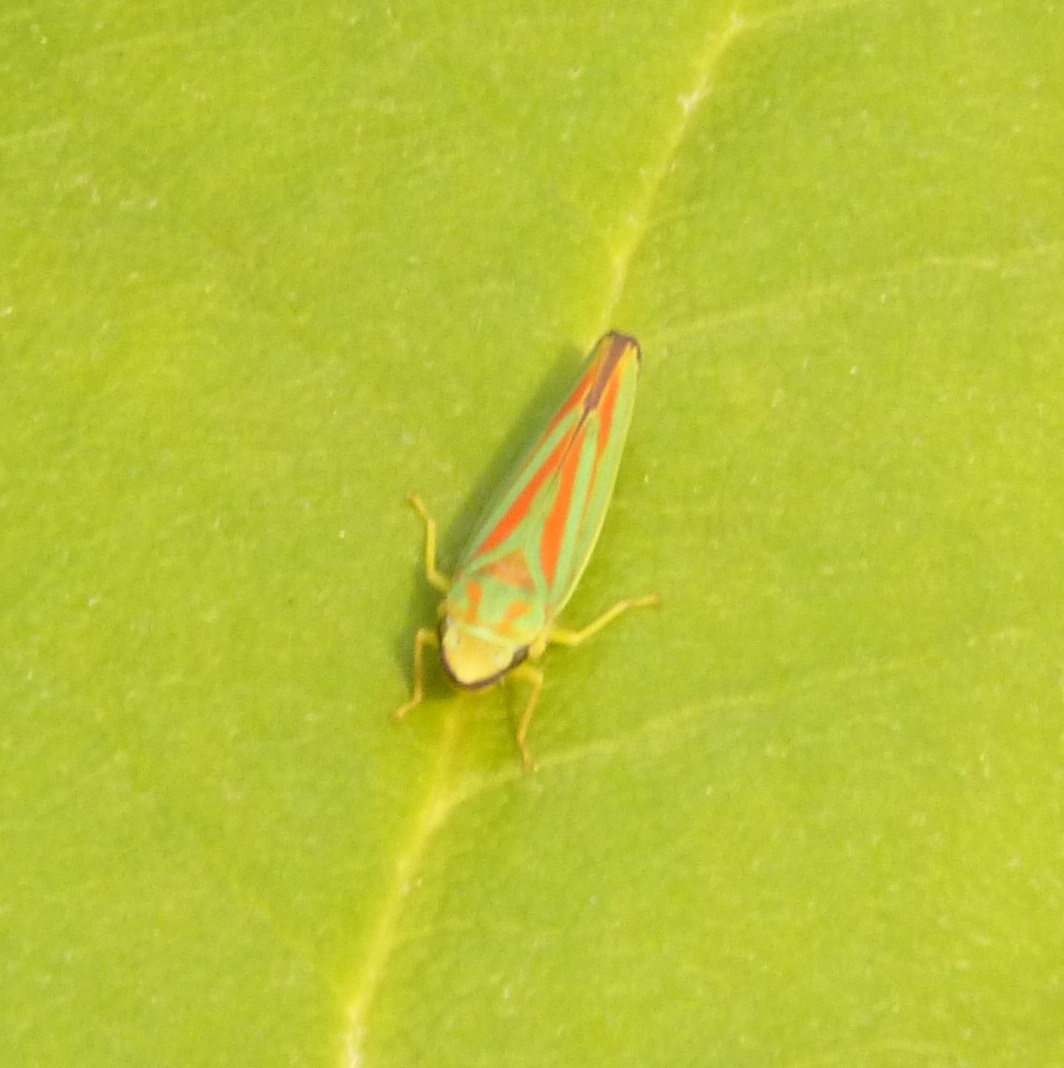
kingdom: Animalia
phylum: Arthropoda
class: Insecta
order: Hemiptera
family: Cicadellidae
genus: Graphocephala
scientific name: Graphocephala fennahi
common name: Rhododendron leafhopper
